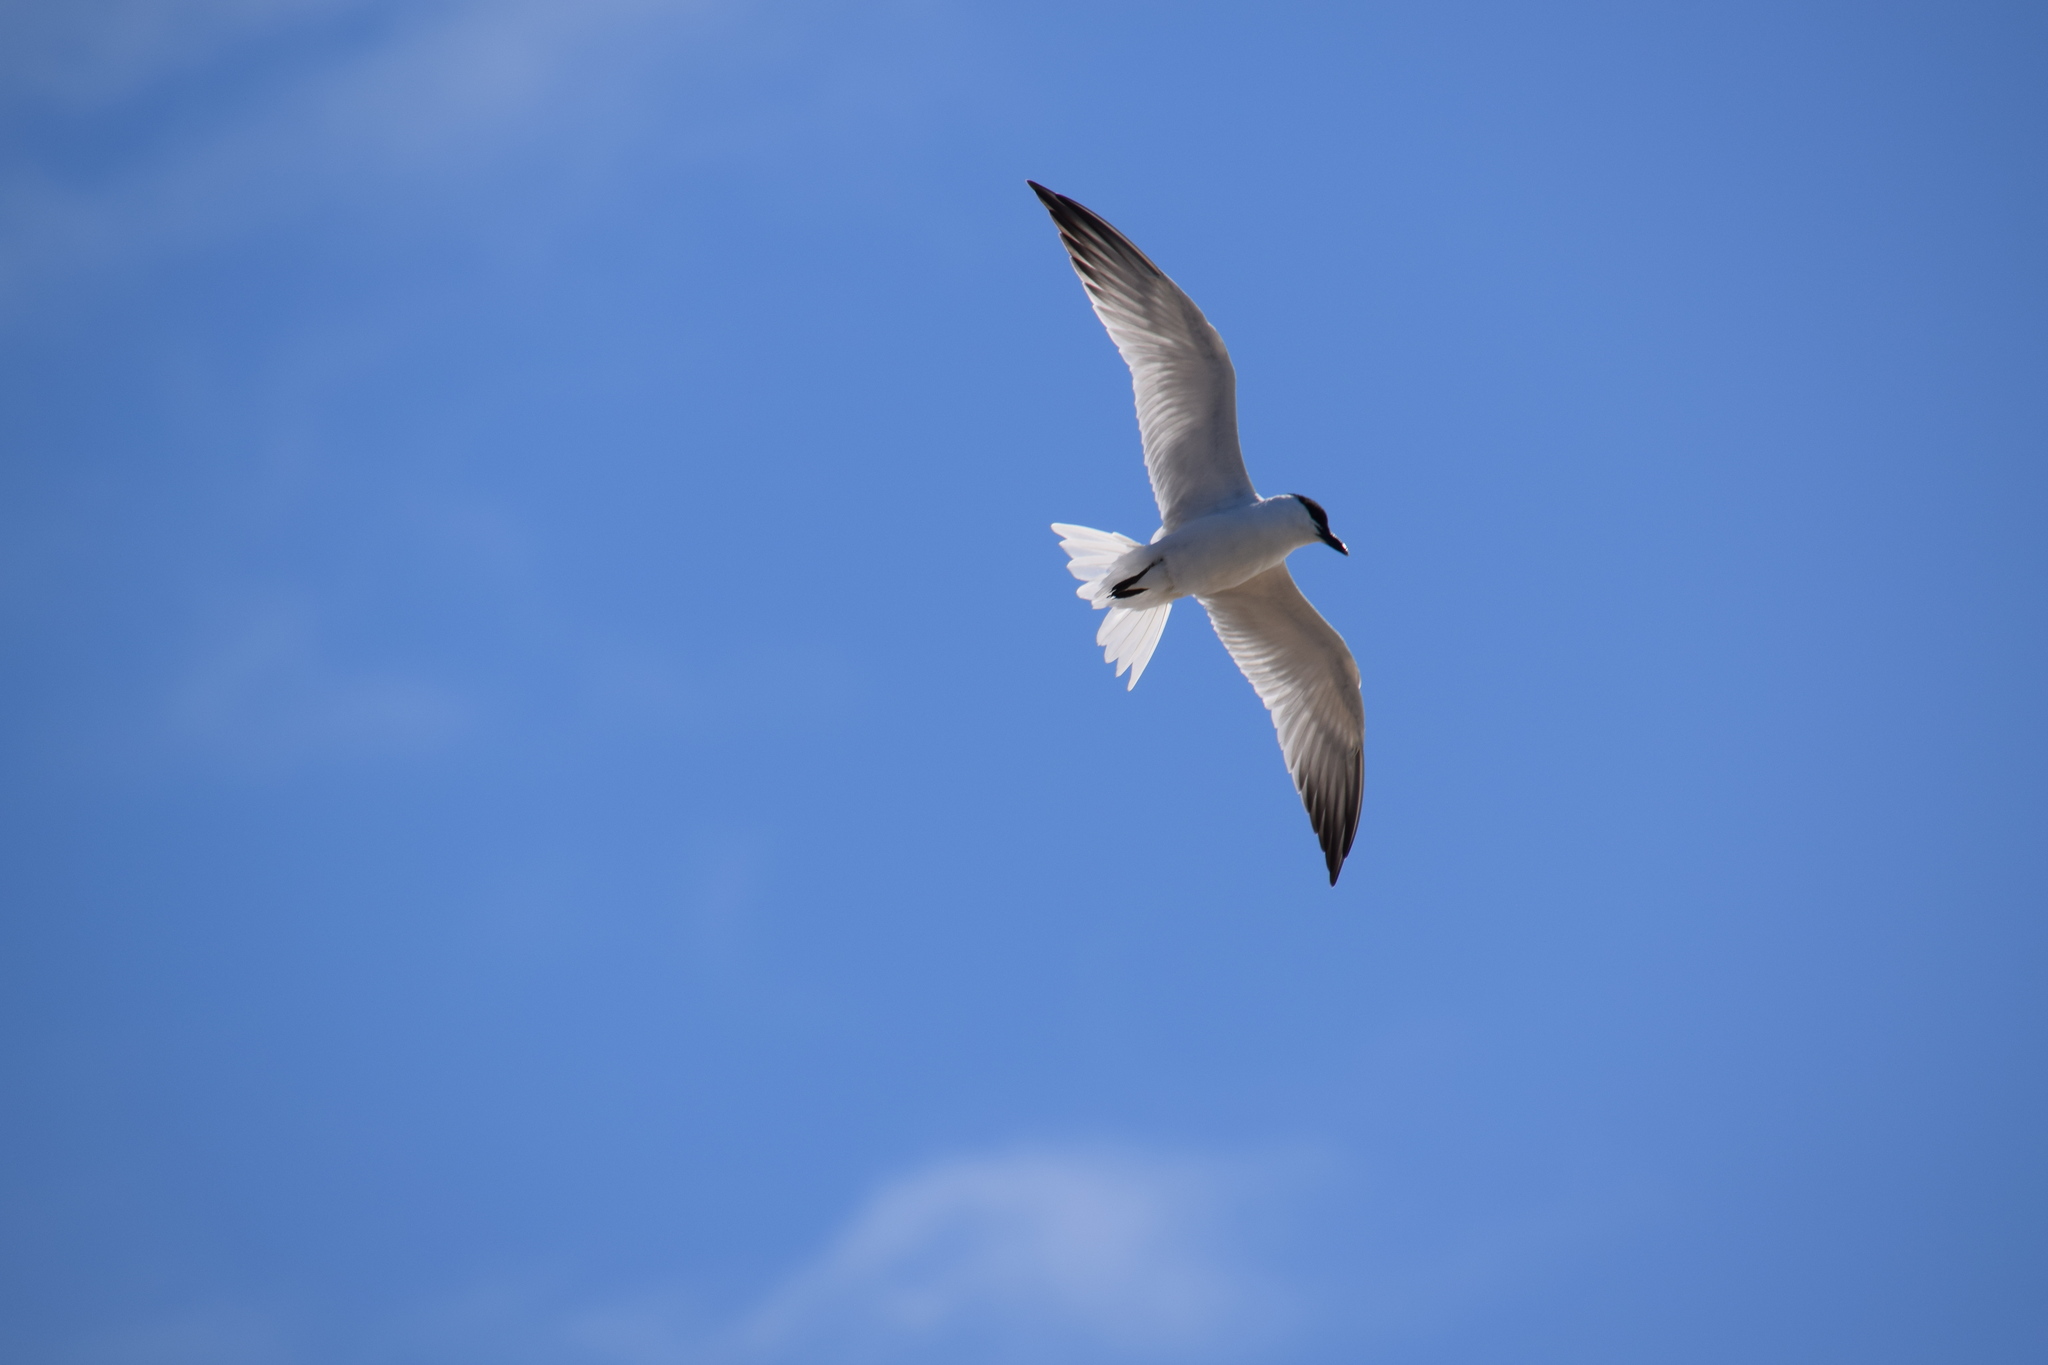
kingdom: Animalia
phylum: Chordata
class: Aves
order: Charadriiformes
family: Laridae
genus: Gelochelidon
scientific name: Gelochelidon macrotarsa
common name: Australian tern
